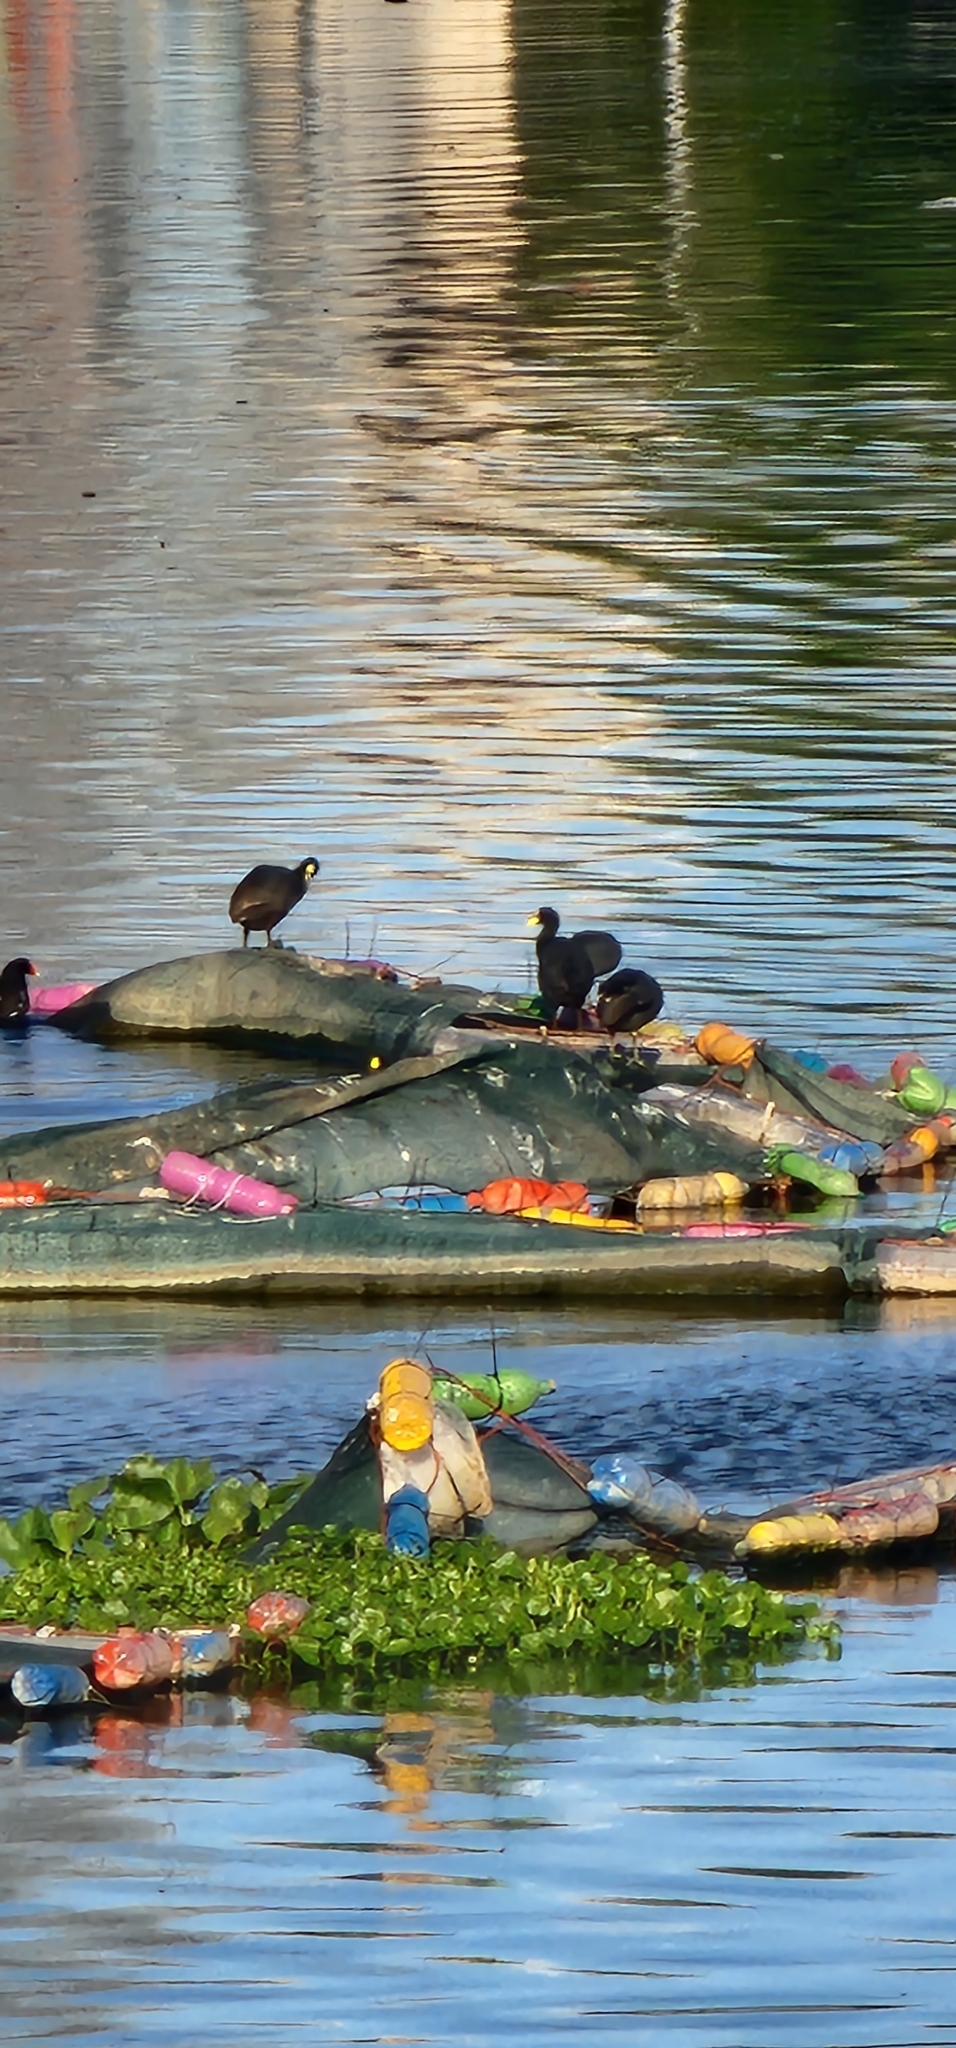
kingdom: Animalia
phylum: Chordata
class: Aves
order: Gruiformes
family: Rallidae
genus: Fulica
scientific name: Fulica leucoptera
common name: White-winged coot
